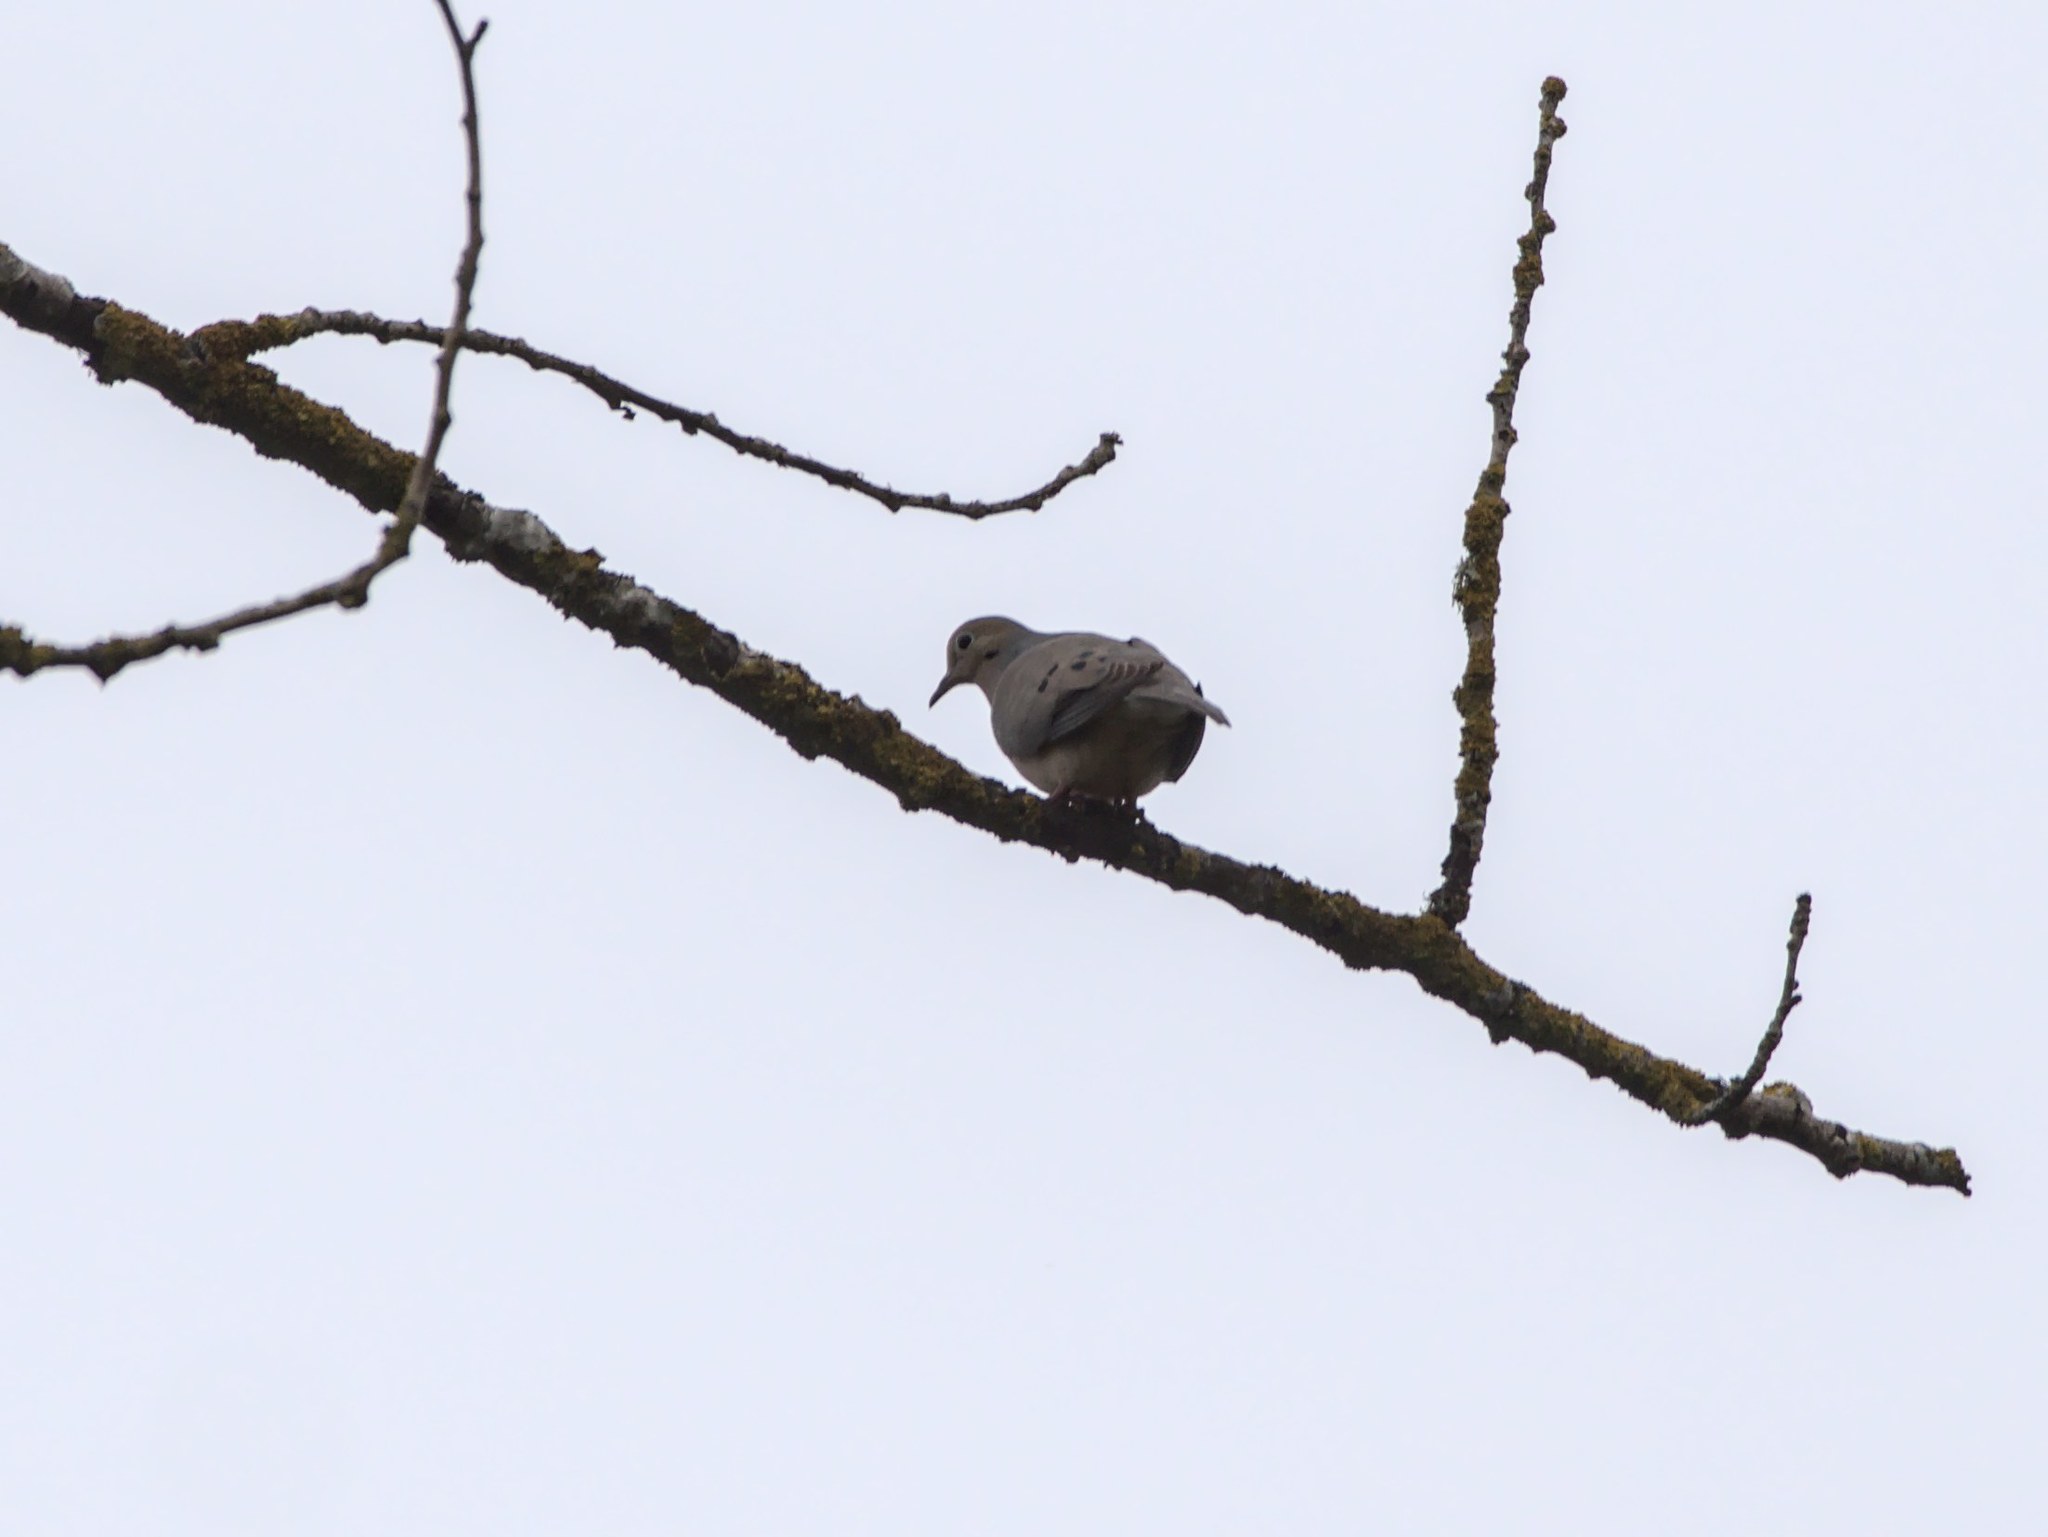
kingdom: Animalia
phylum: Chordata
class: Aves
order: Columbiformes
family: Columbidae
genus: Zenaida
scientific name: Zenaida macroura
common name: Mourning dove
